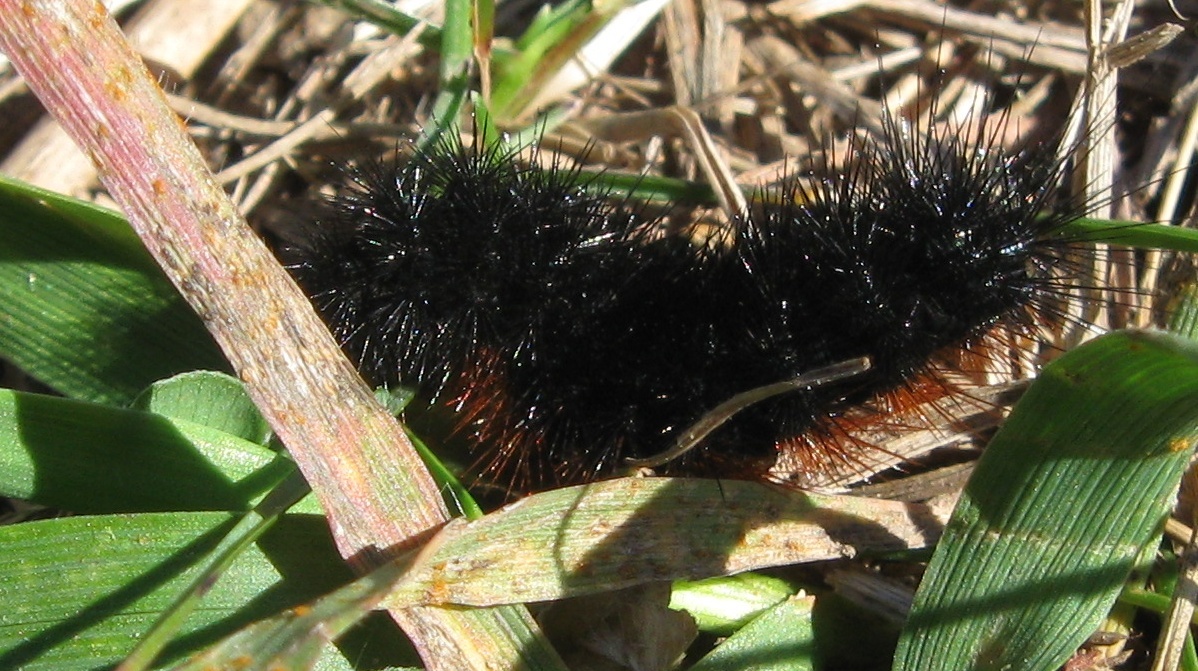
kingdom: Animalia
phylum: Arthropoda
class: Insecta
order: Lepidoptera
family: Erebidae
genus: Pyrrharctia
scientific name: Pyrrharctia isabella
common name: Isabella tiger moth
